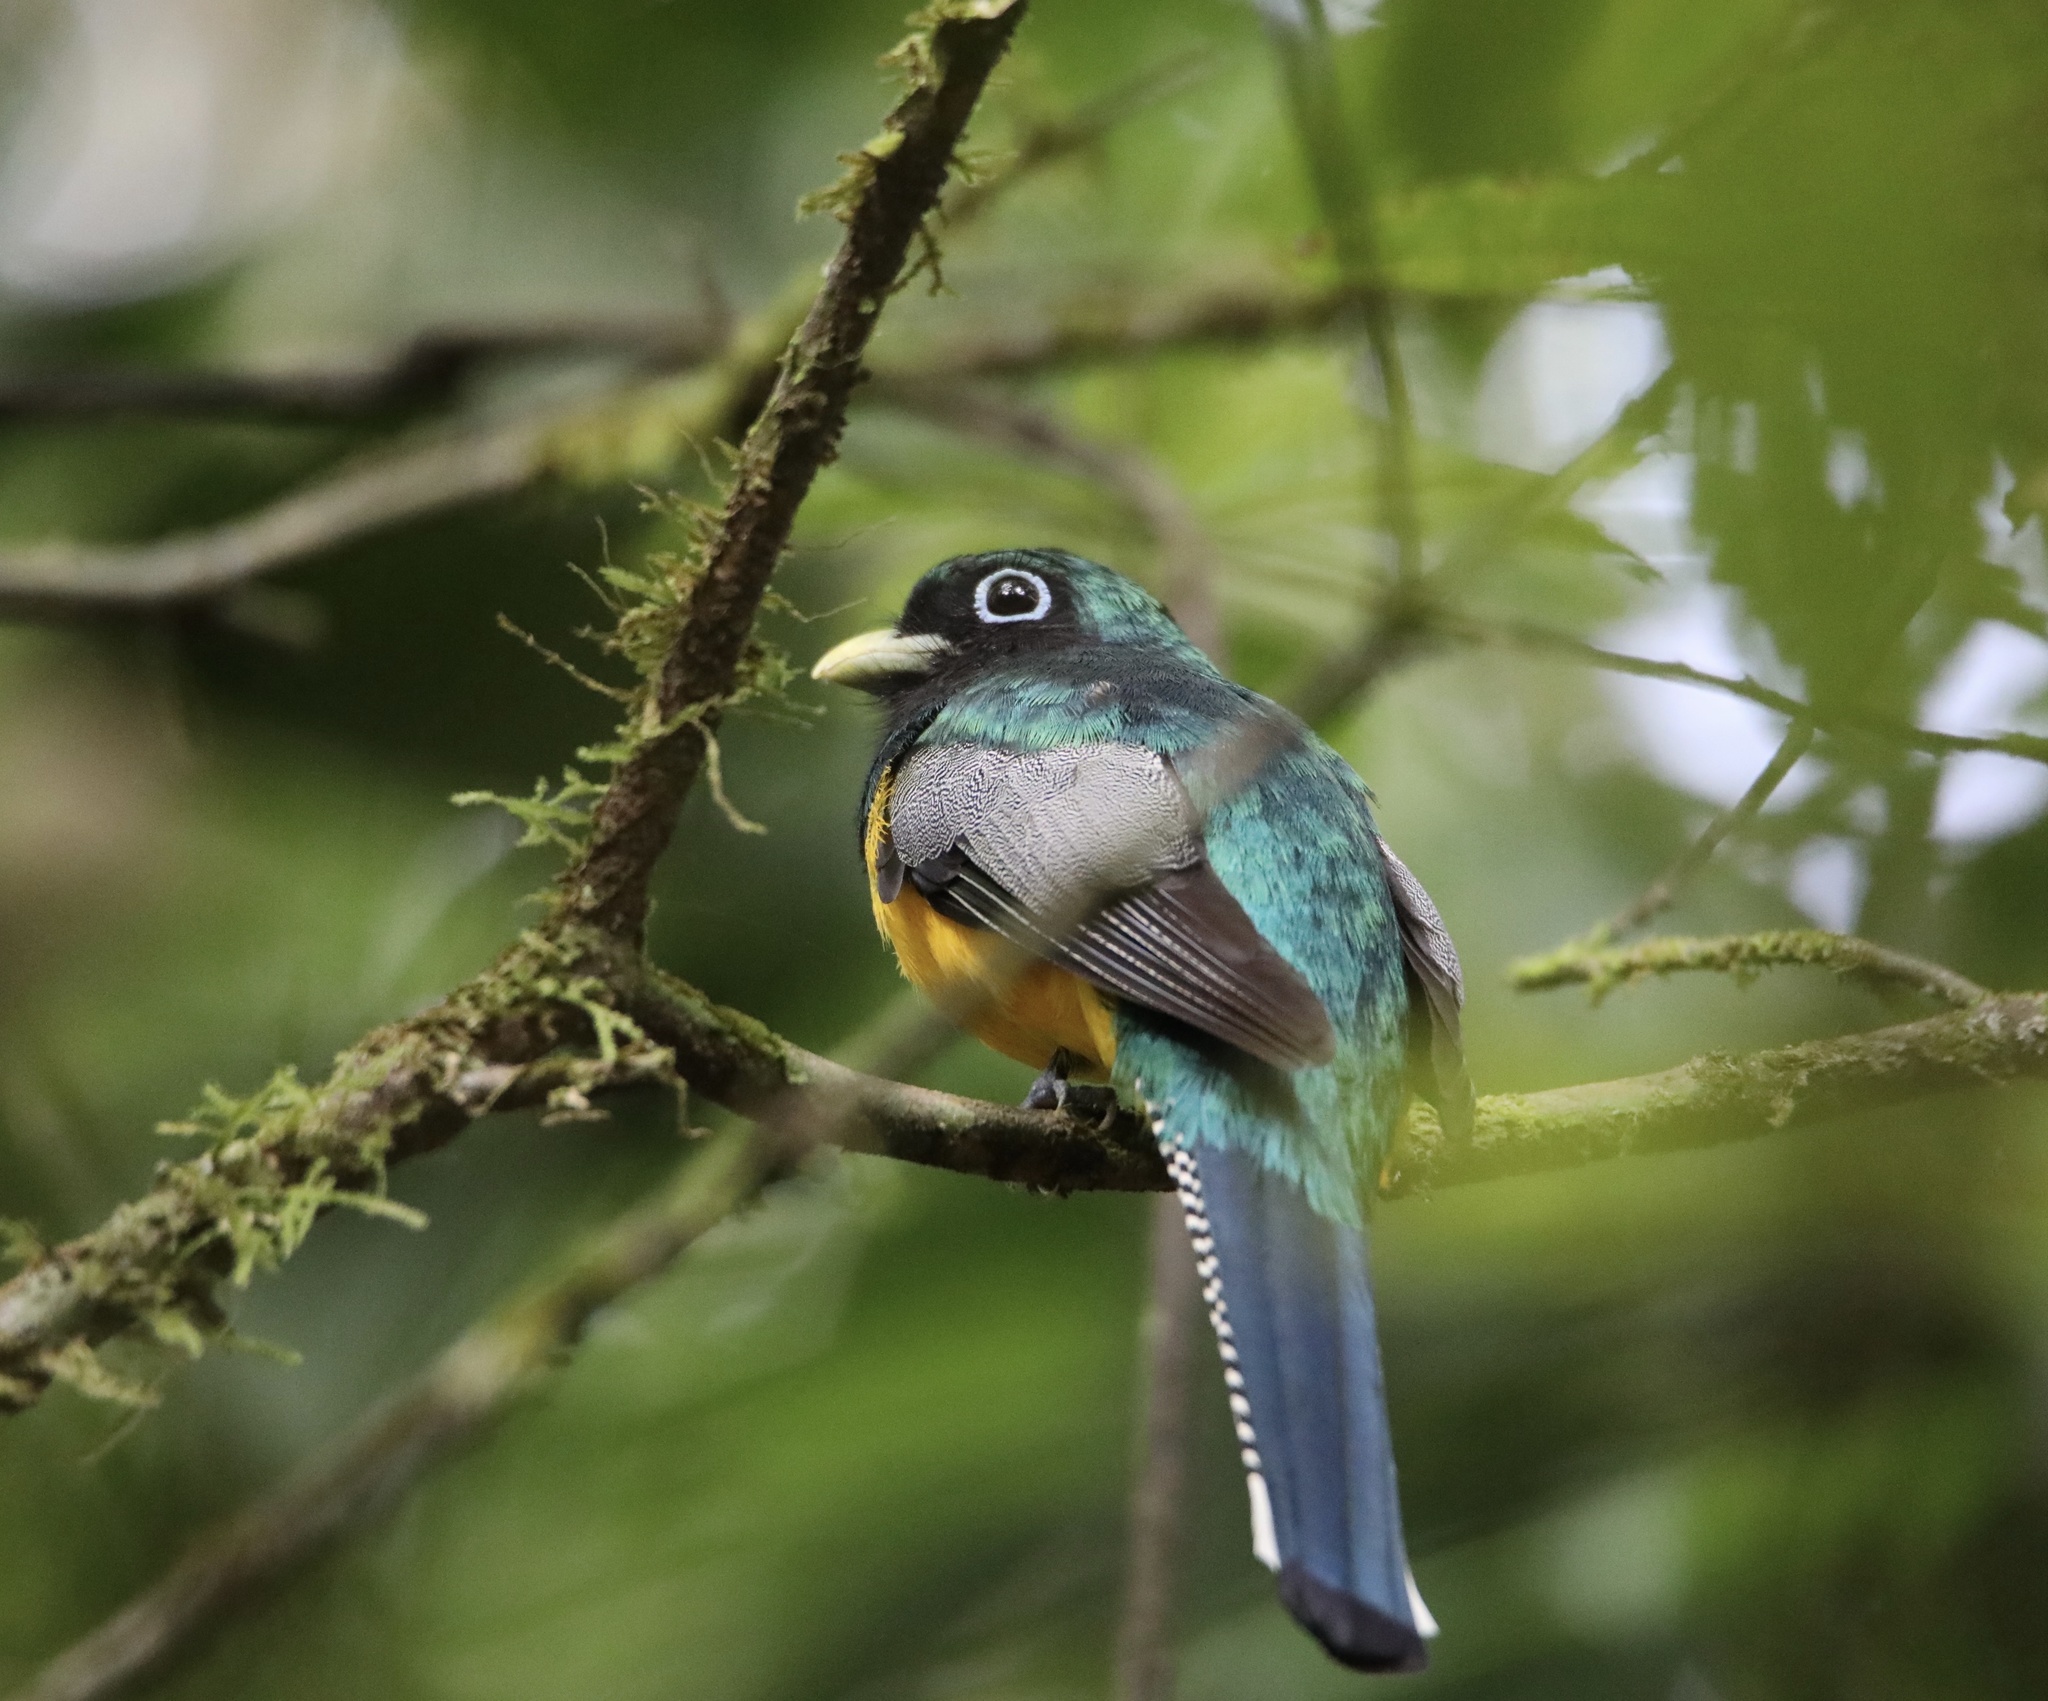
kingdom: Animalia
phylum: Chordata
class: Aves
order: Trogoniformes
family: Trogonidae
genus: Trogon
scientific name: Trogon rufus
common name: Black-throated trogon
